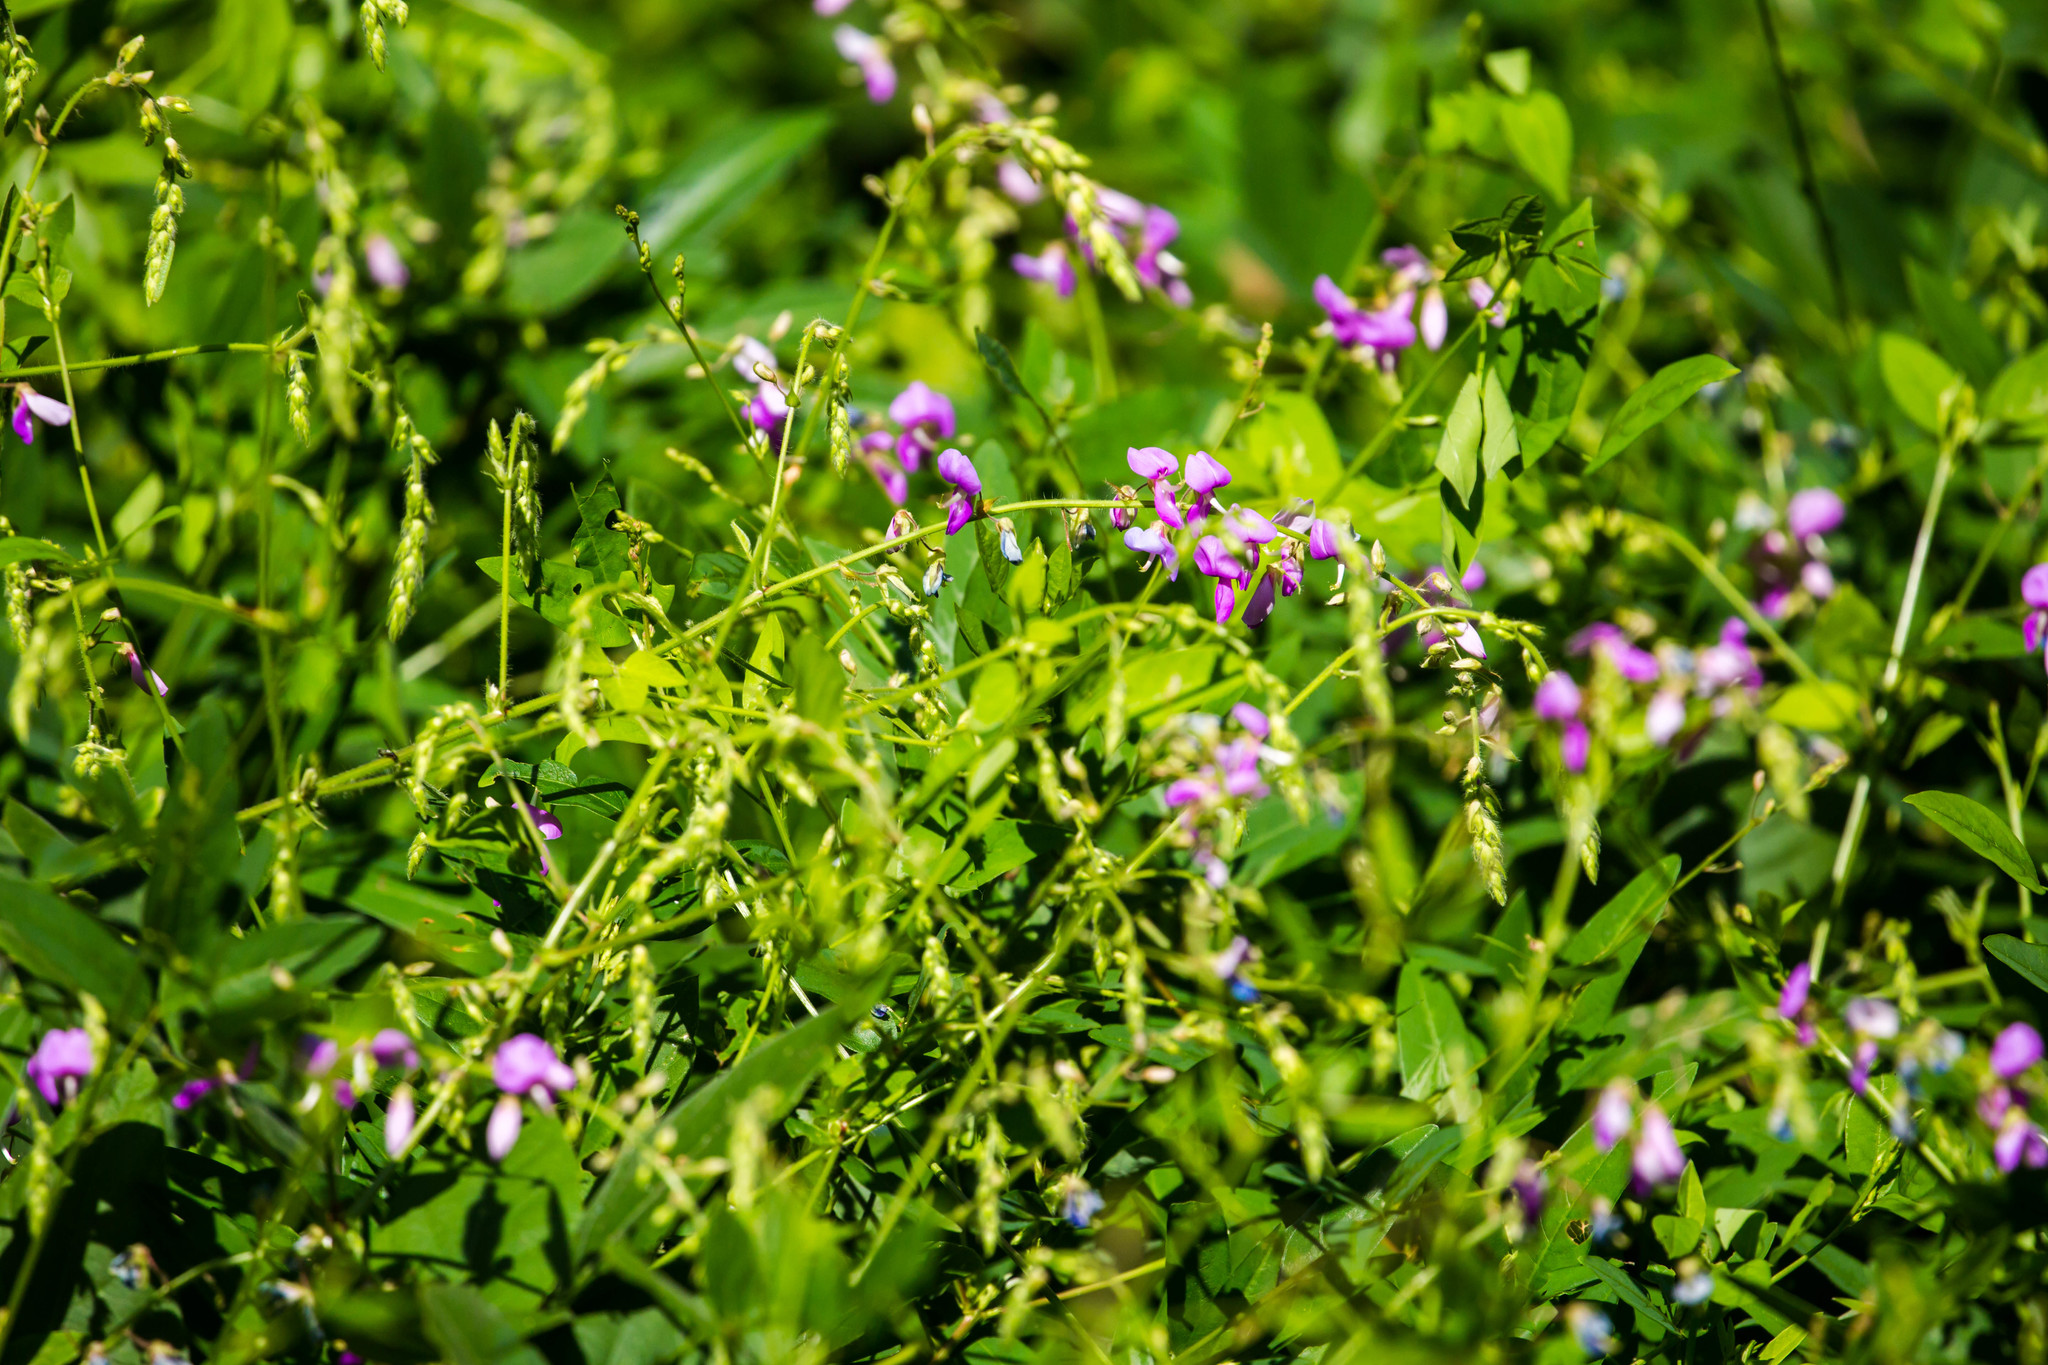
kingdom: Plantae
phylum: Tracheophyta
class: Magnoliopsida
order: Fabales
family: Fabaceae
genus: Desmodium
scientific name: Desmodium canescens
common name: Hoary tick-clover
